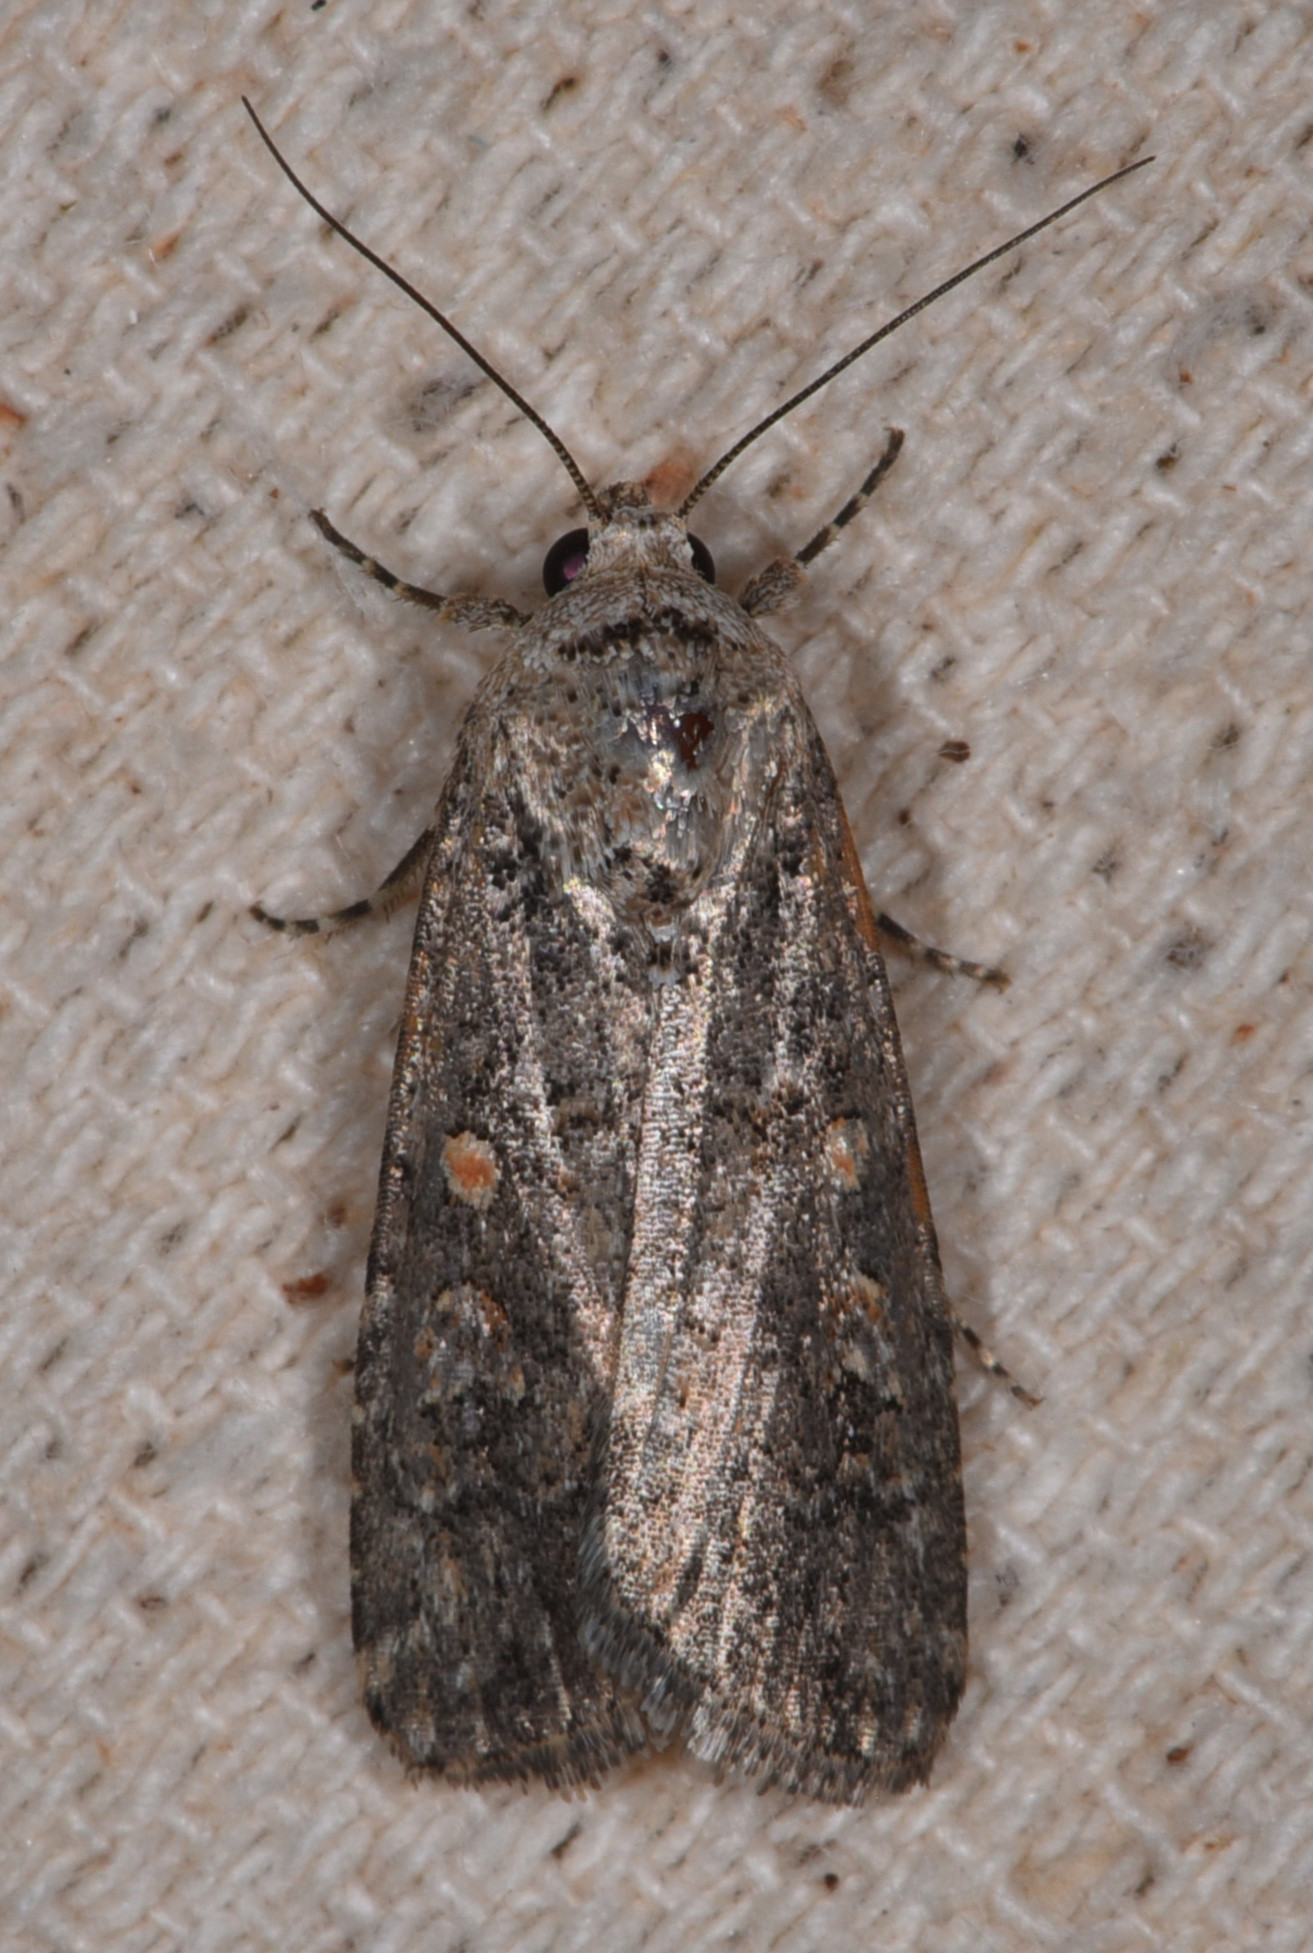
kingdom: Animalia
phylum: Arthropoda
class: Insecta
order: Lepidoptera
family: Noctuidae
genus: Spodoptera
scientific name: Spodoptera exigua
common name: Beet armyworm
